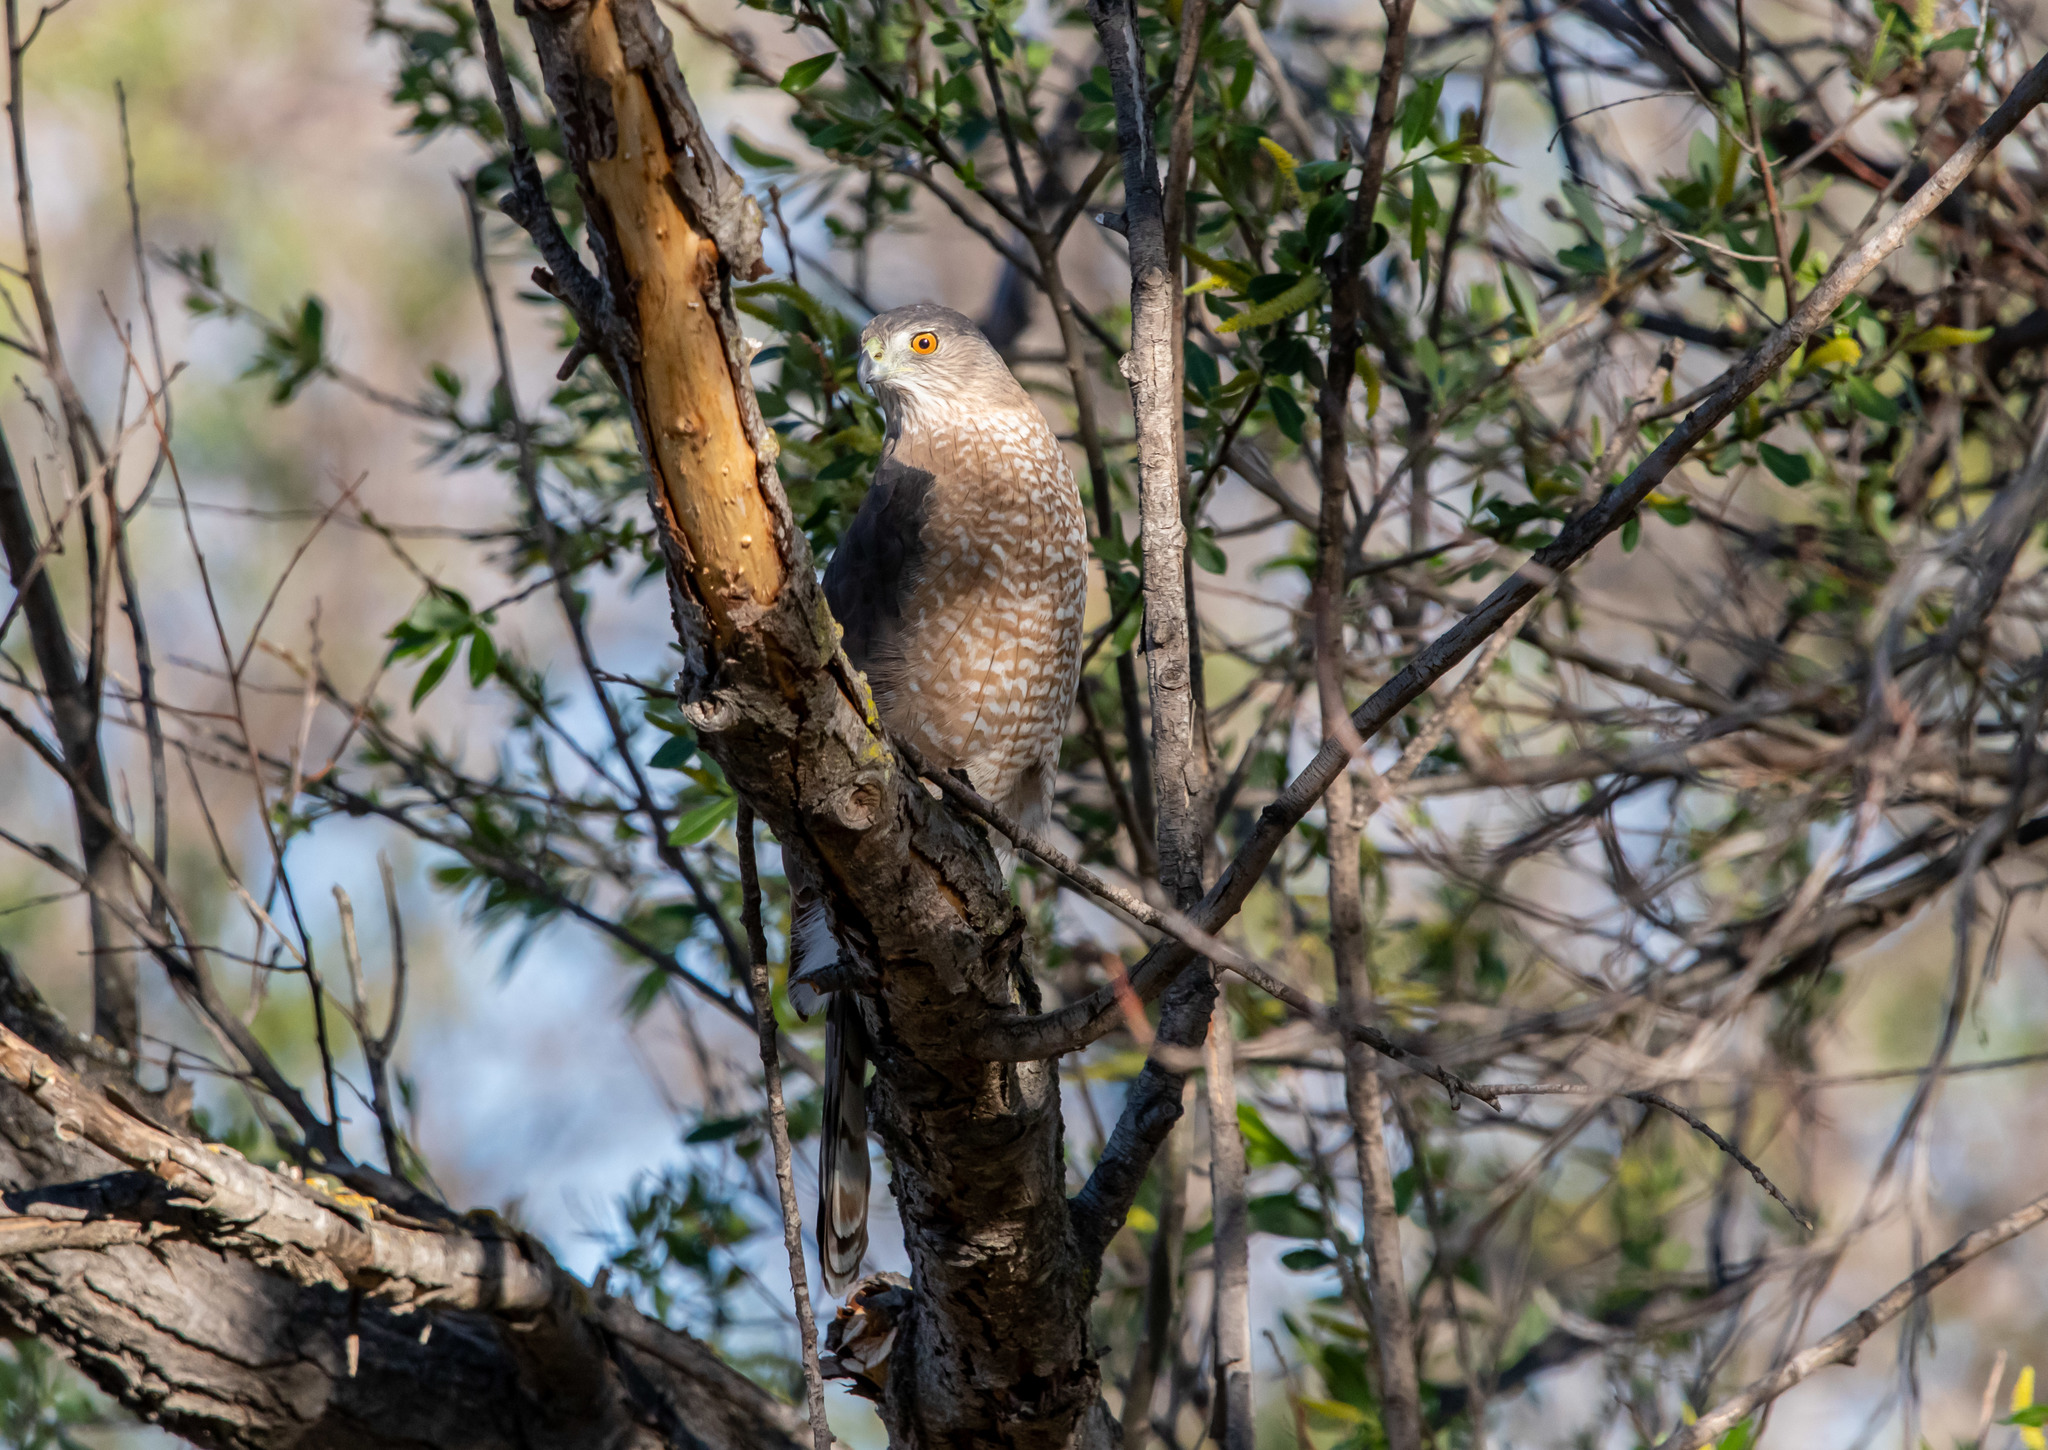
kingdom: Animalia
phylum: Chordata
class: Aves
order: Accipitriformes
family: Accipitridae
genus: Accipiter
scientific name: Accipiter cooperii
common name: Cooper's hawk
